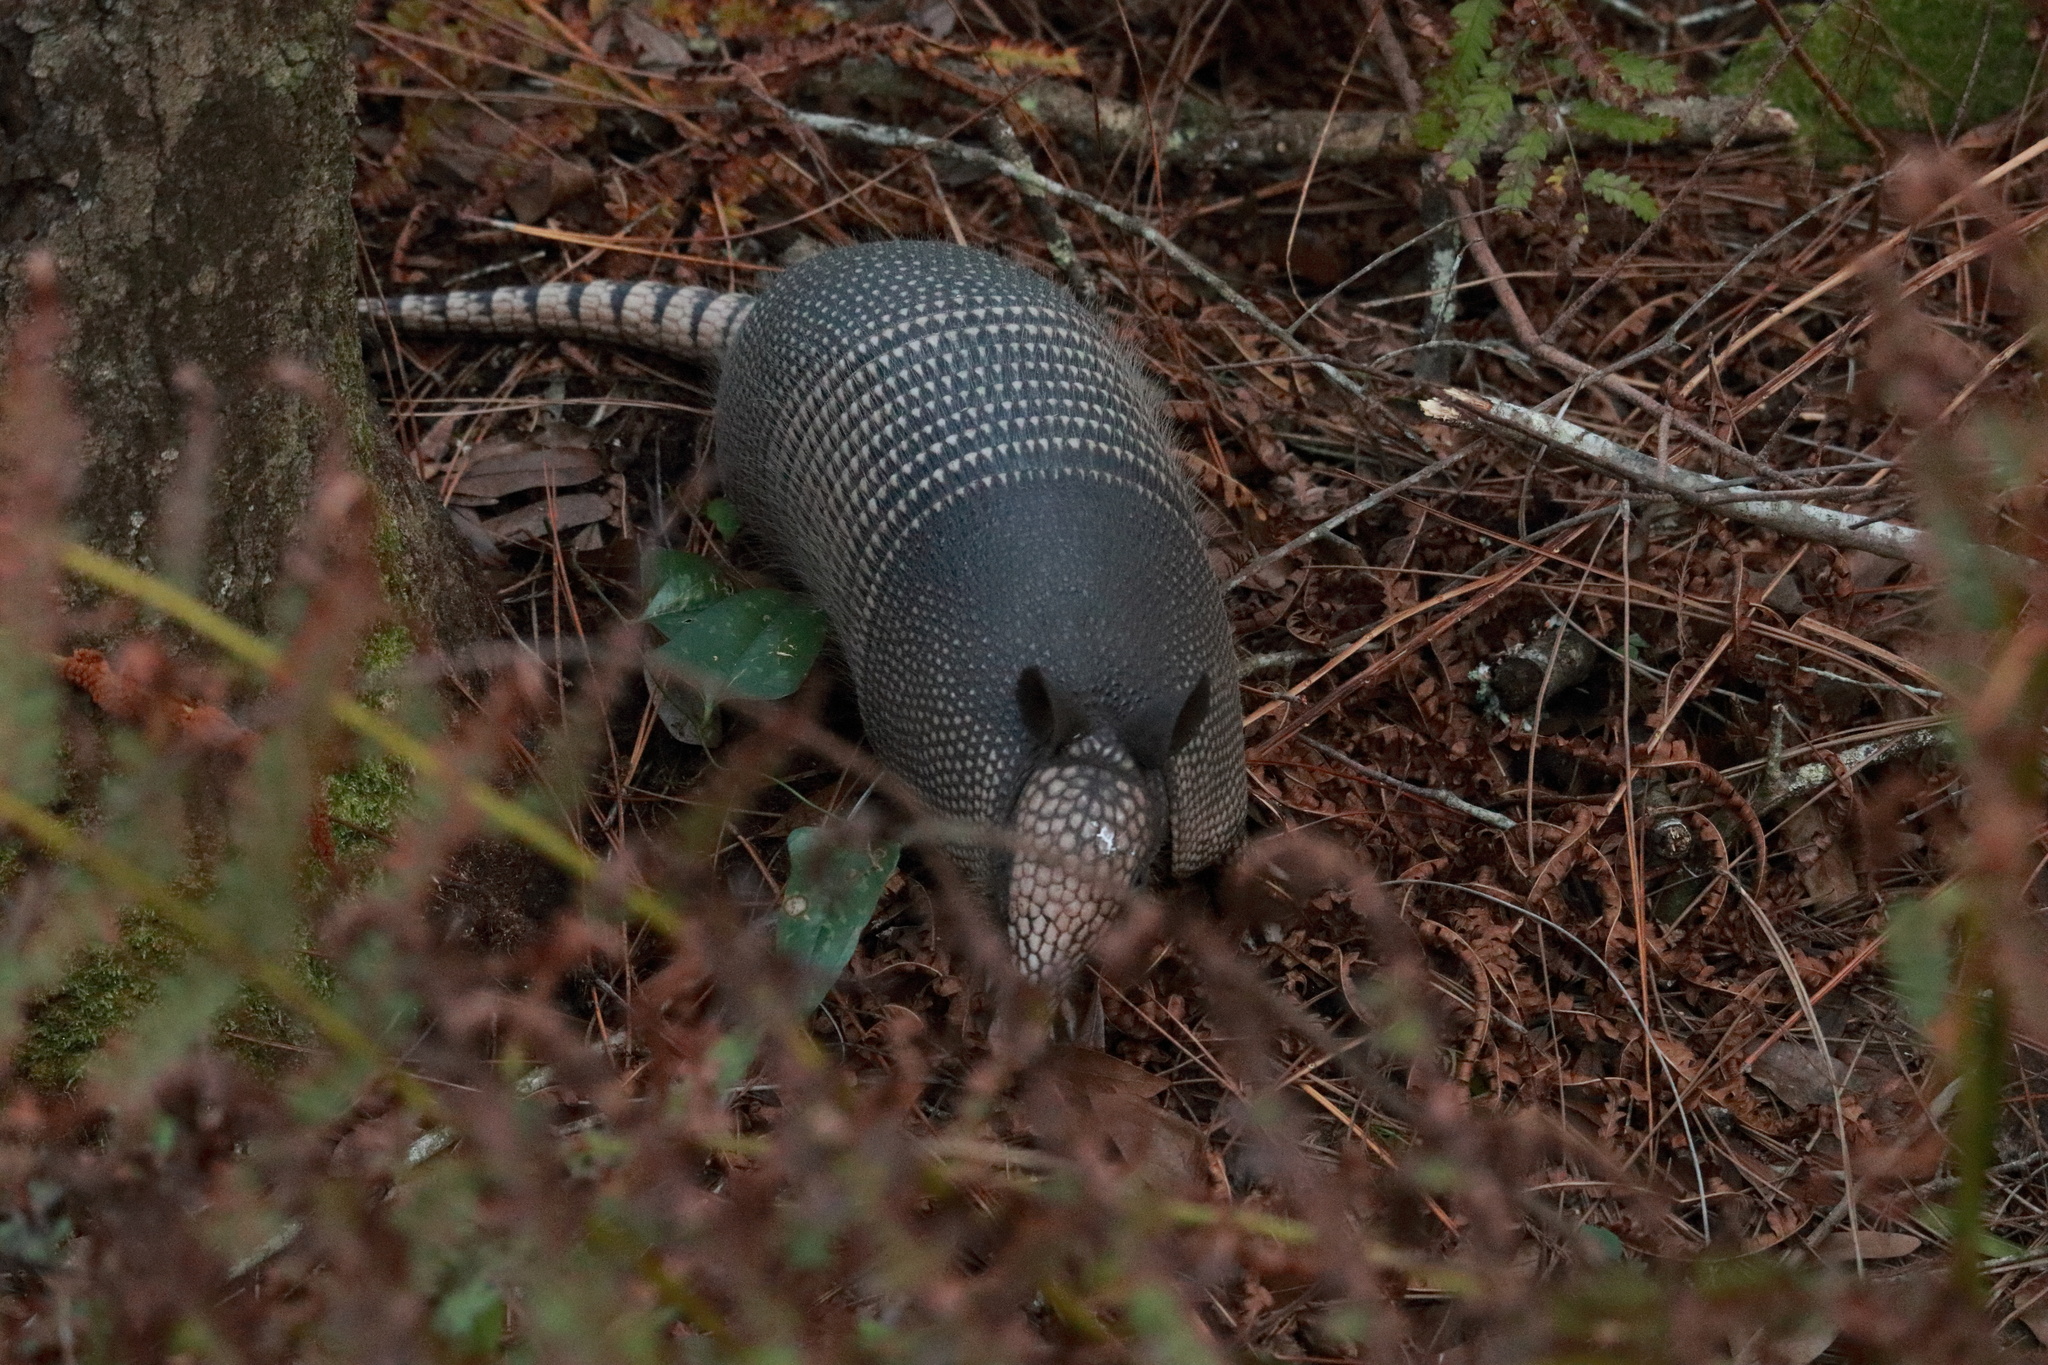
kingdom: Animalia
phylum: Chordata
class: Mammalia
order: Cingulata
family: Dasypodidae
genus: Dasypus
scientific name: Dasypus novemcinctus
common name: Nine-banded armadillo
